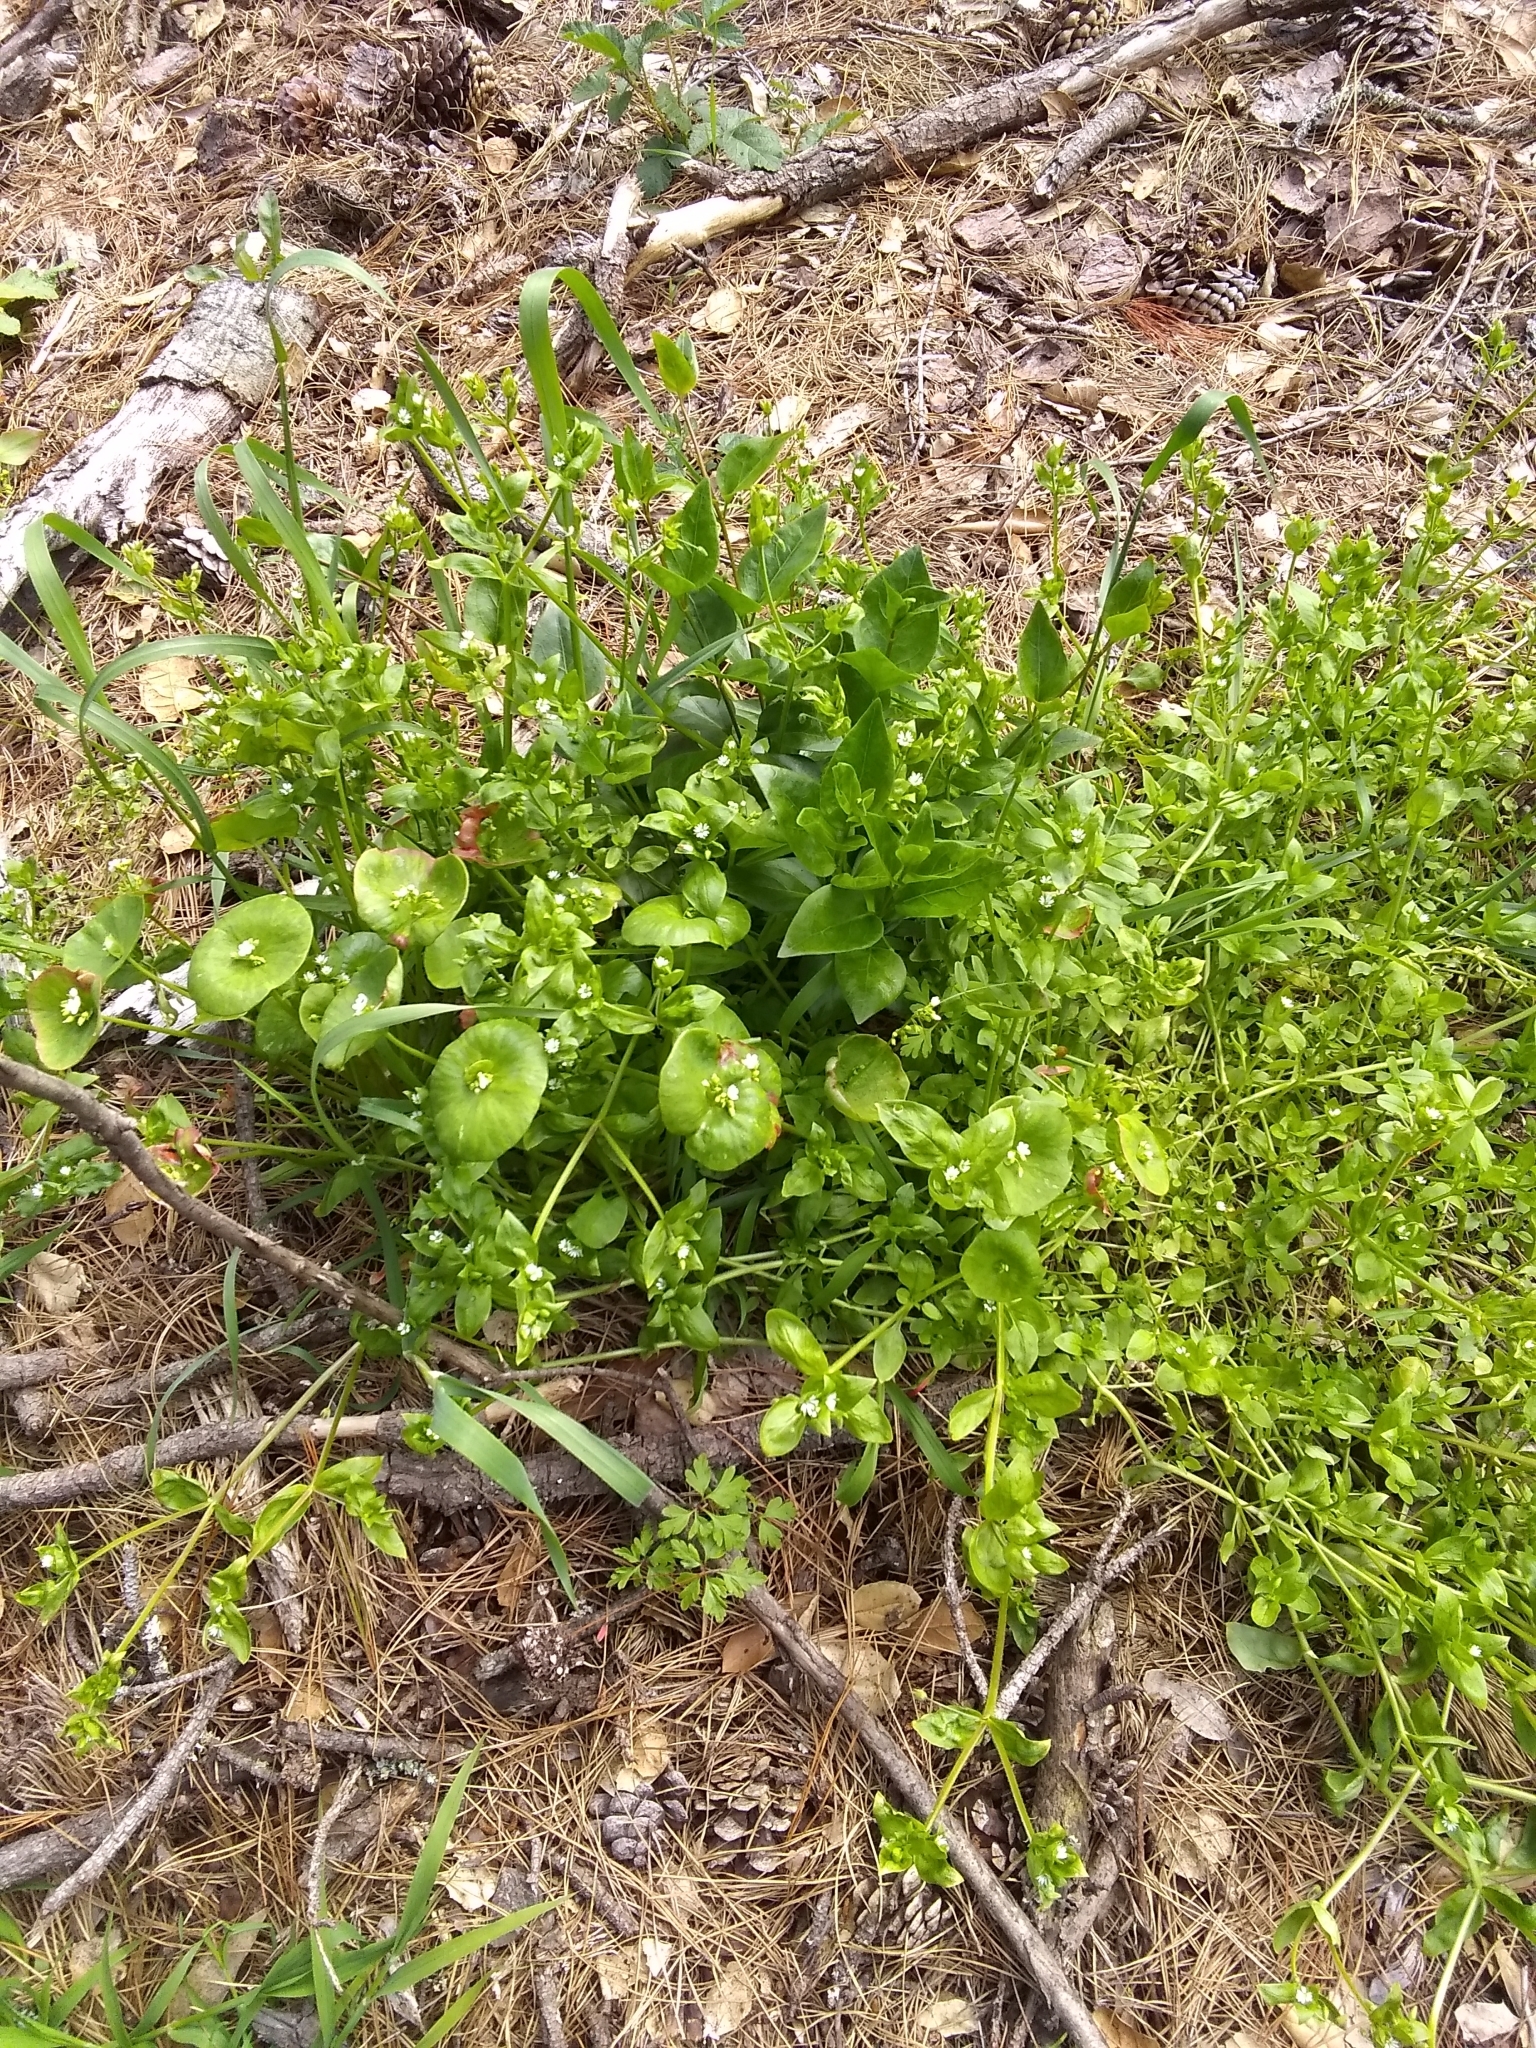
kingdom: Plantae
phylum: Tracheophyta
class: Magnoliopsida
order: Caryophyllales
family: Montiaceae
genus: Claytonia
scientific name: Claytonia perfoliata
